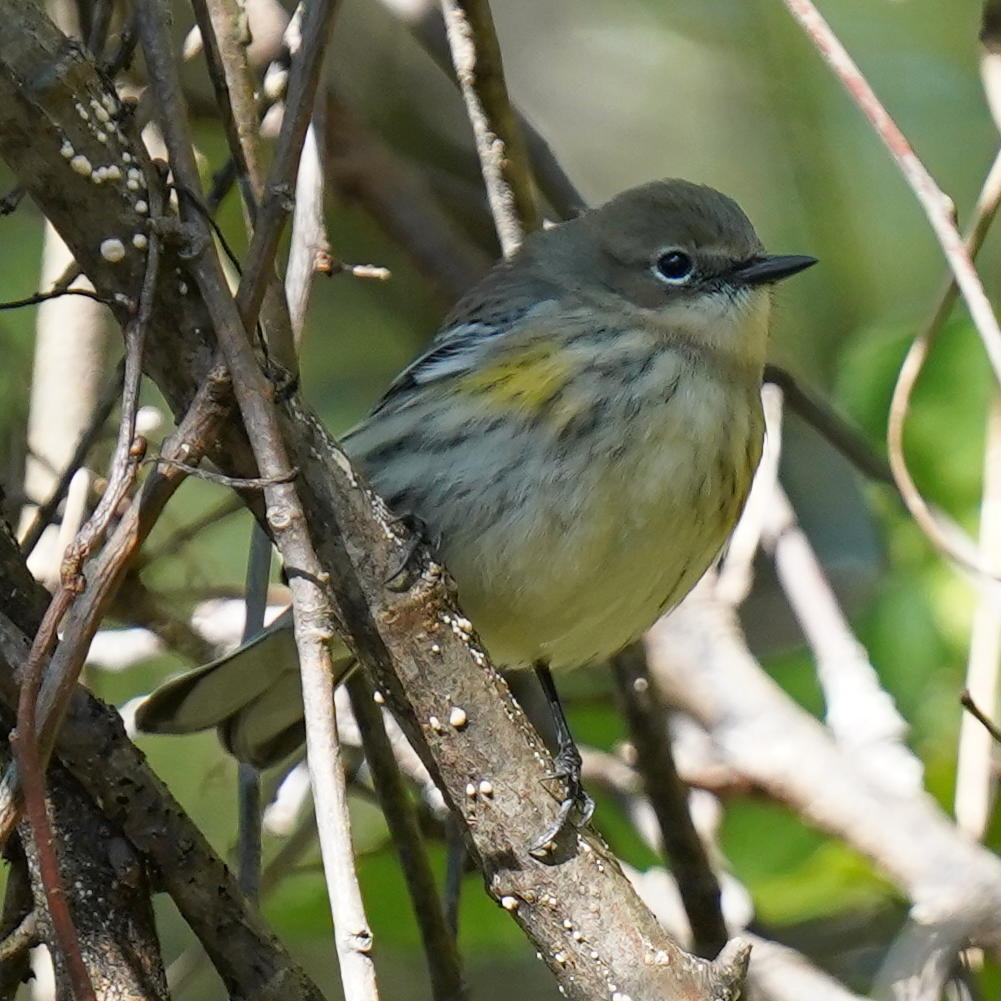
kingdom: Animalia
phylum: Chordata
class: Aves
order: Passeriformes
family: Parulidae
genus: Setophaga
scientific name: Setophaga coronata
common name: Myrtle warbler
